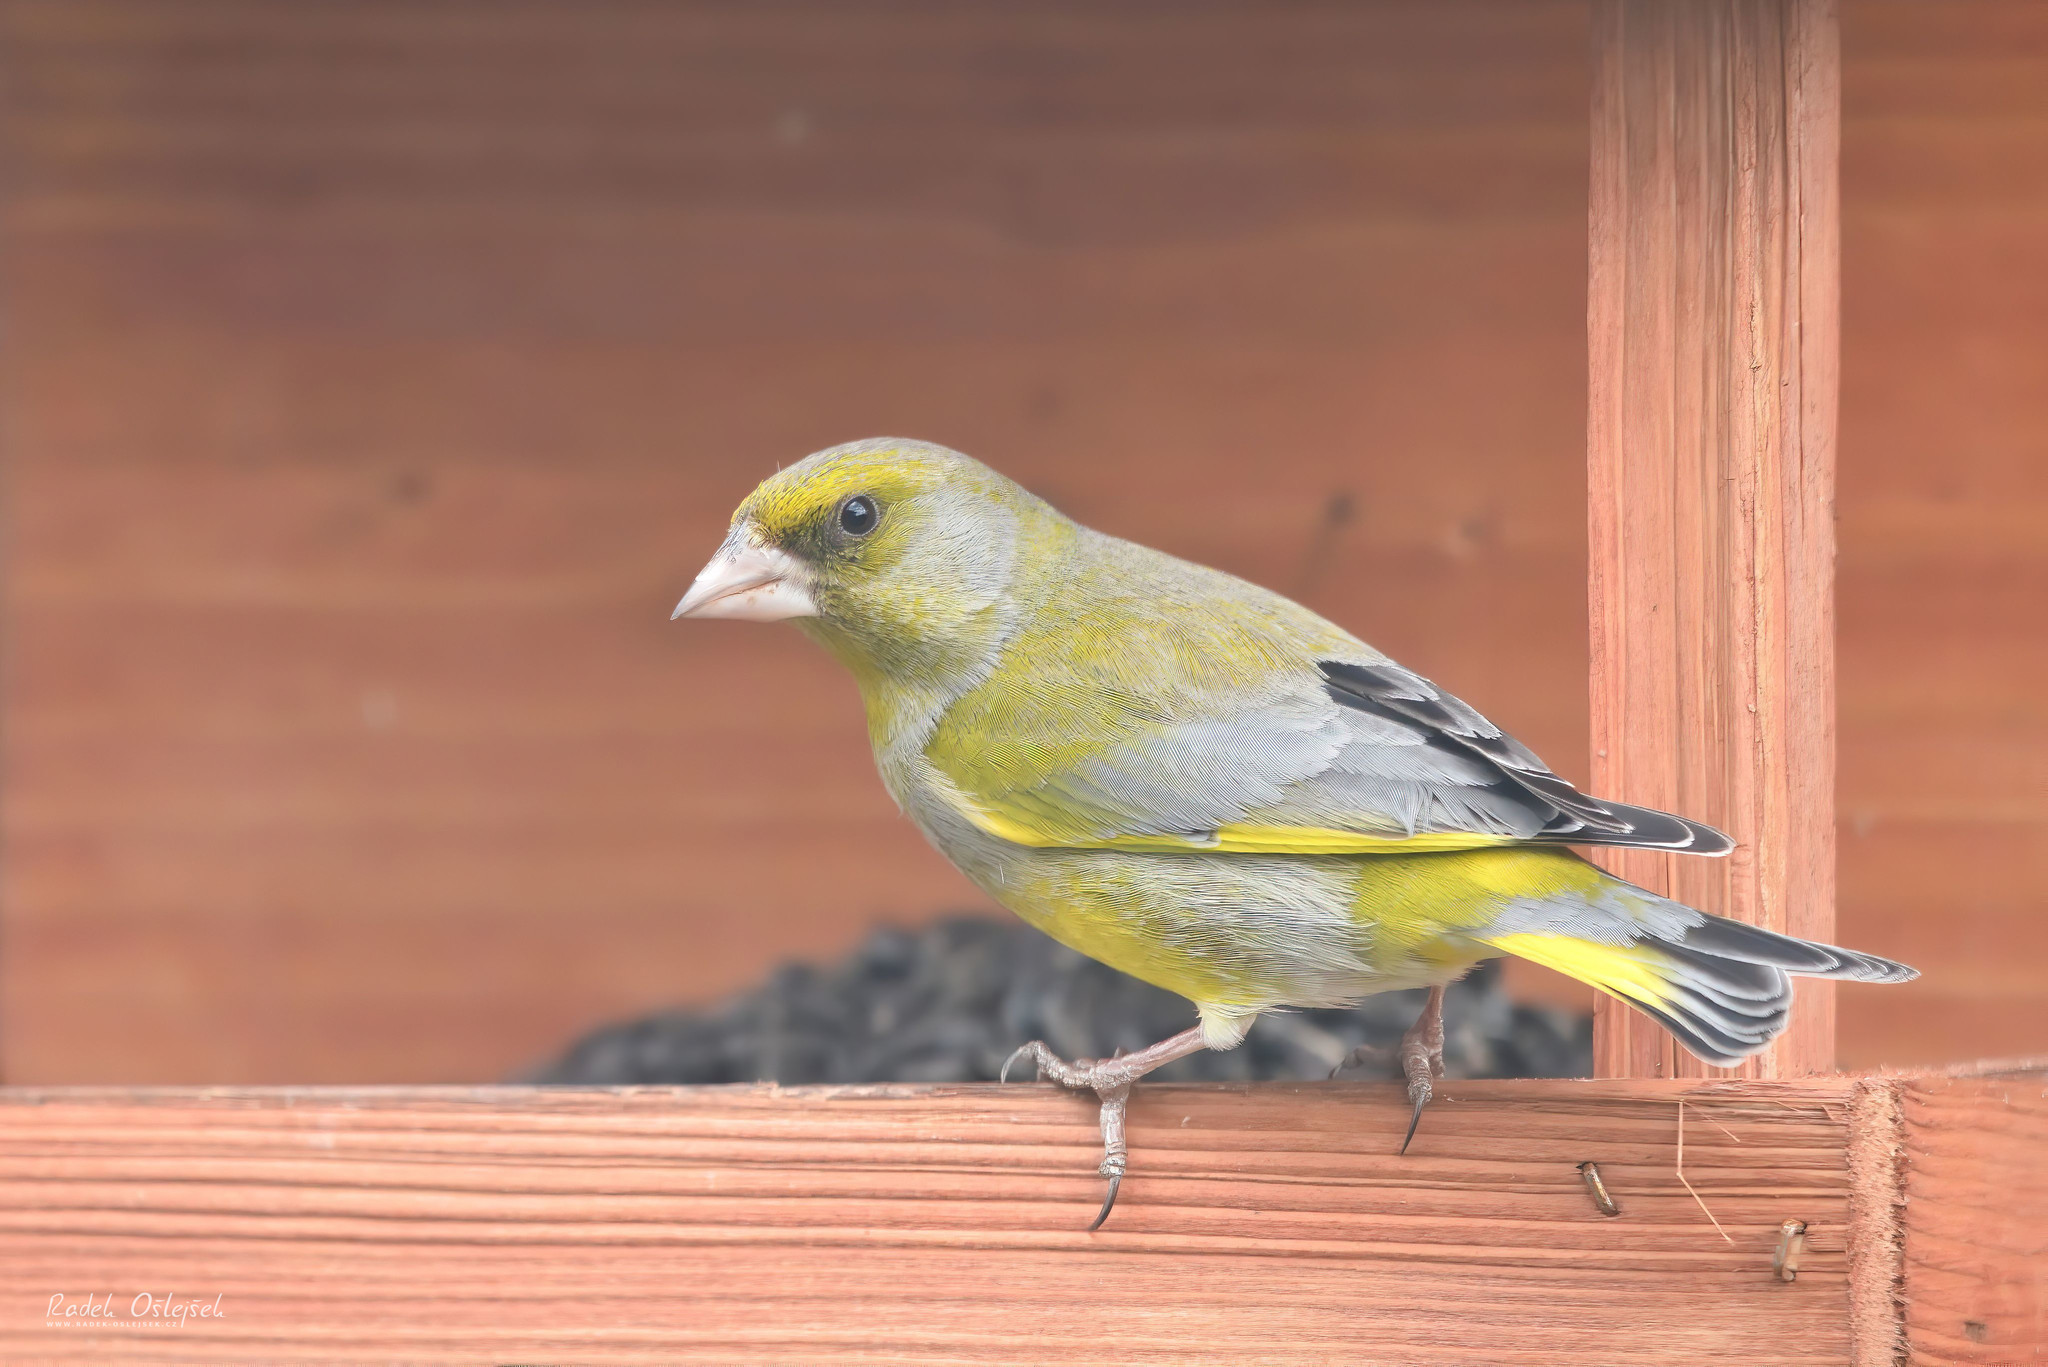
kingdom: Plantae
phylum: Tracheophyta
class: Liliopsida
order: Poales
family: Poaceae
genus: Chloris
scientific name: Chloris chloris
